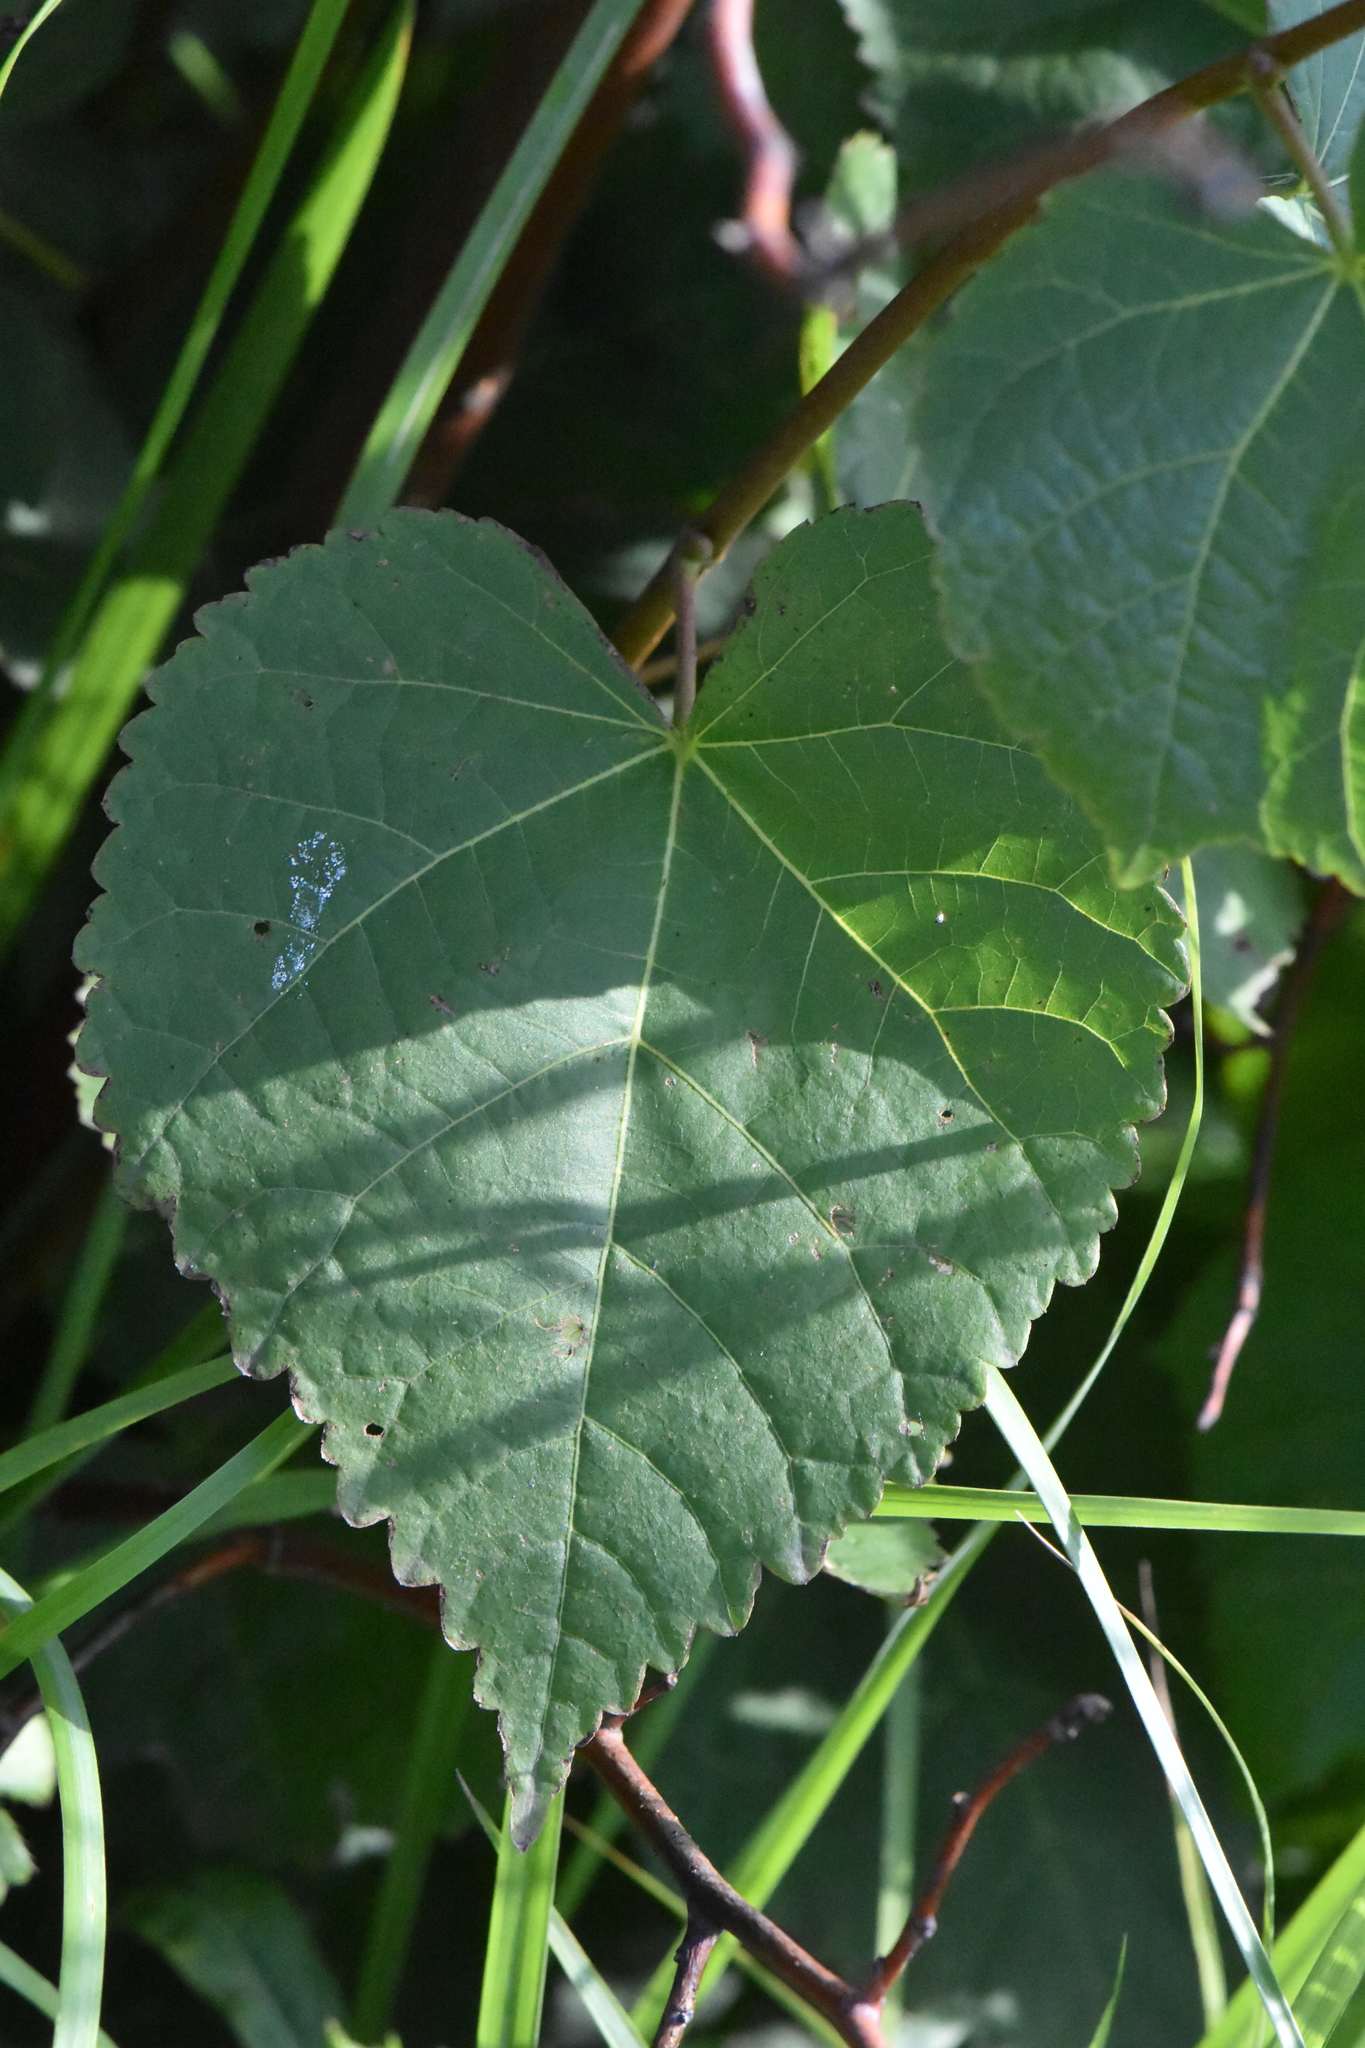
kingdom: Plantae
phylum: Tracheophyta
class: Magnoliopsida
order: Malvales
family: Malvaceae
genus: Tilia
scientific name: Tilia cordata
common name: Small-leaved lime
